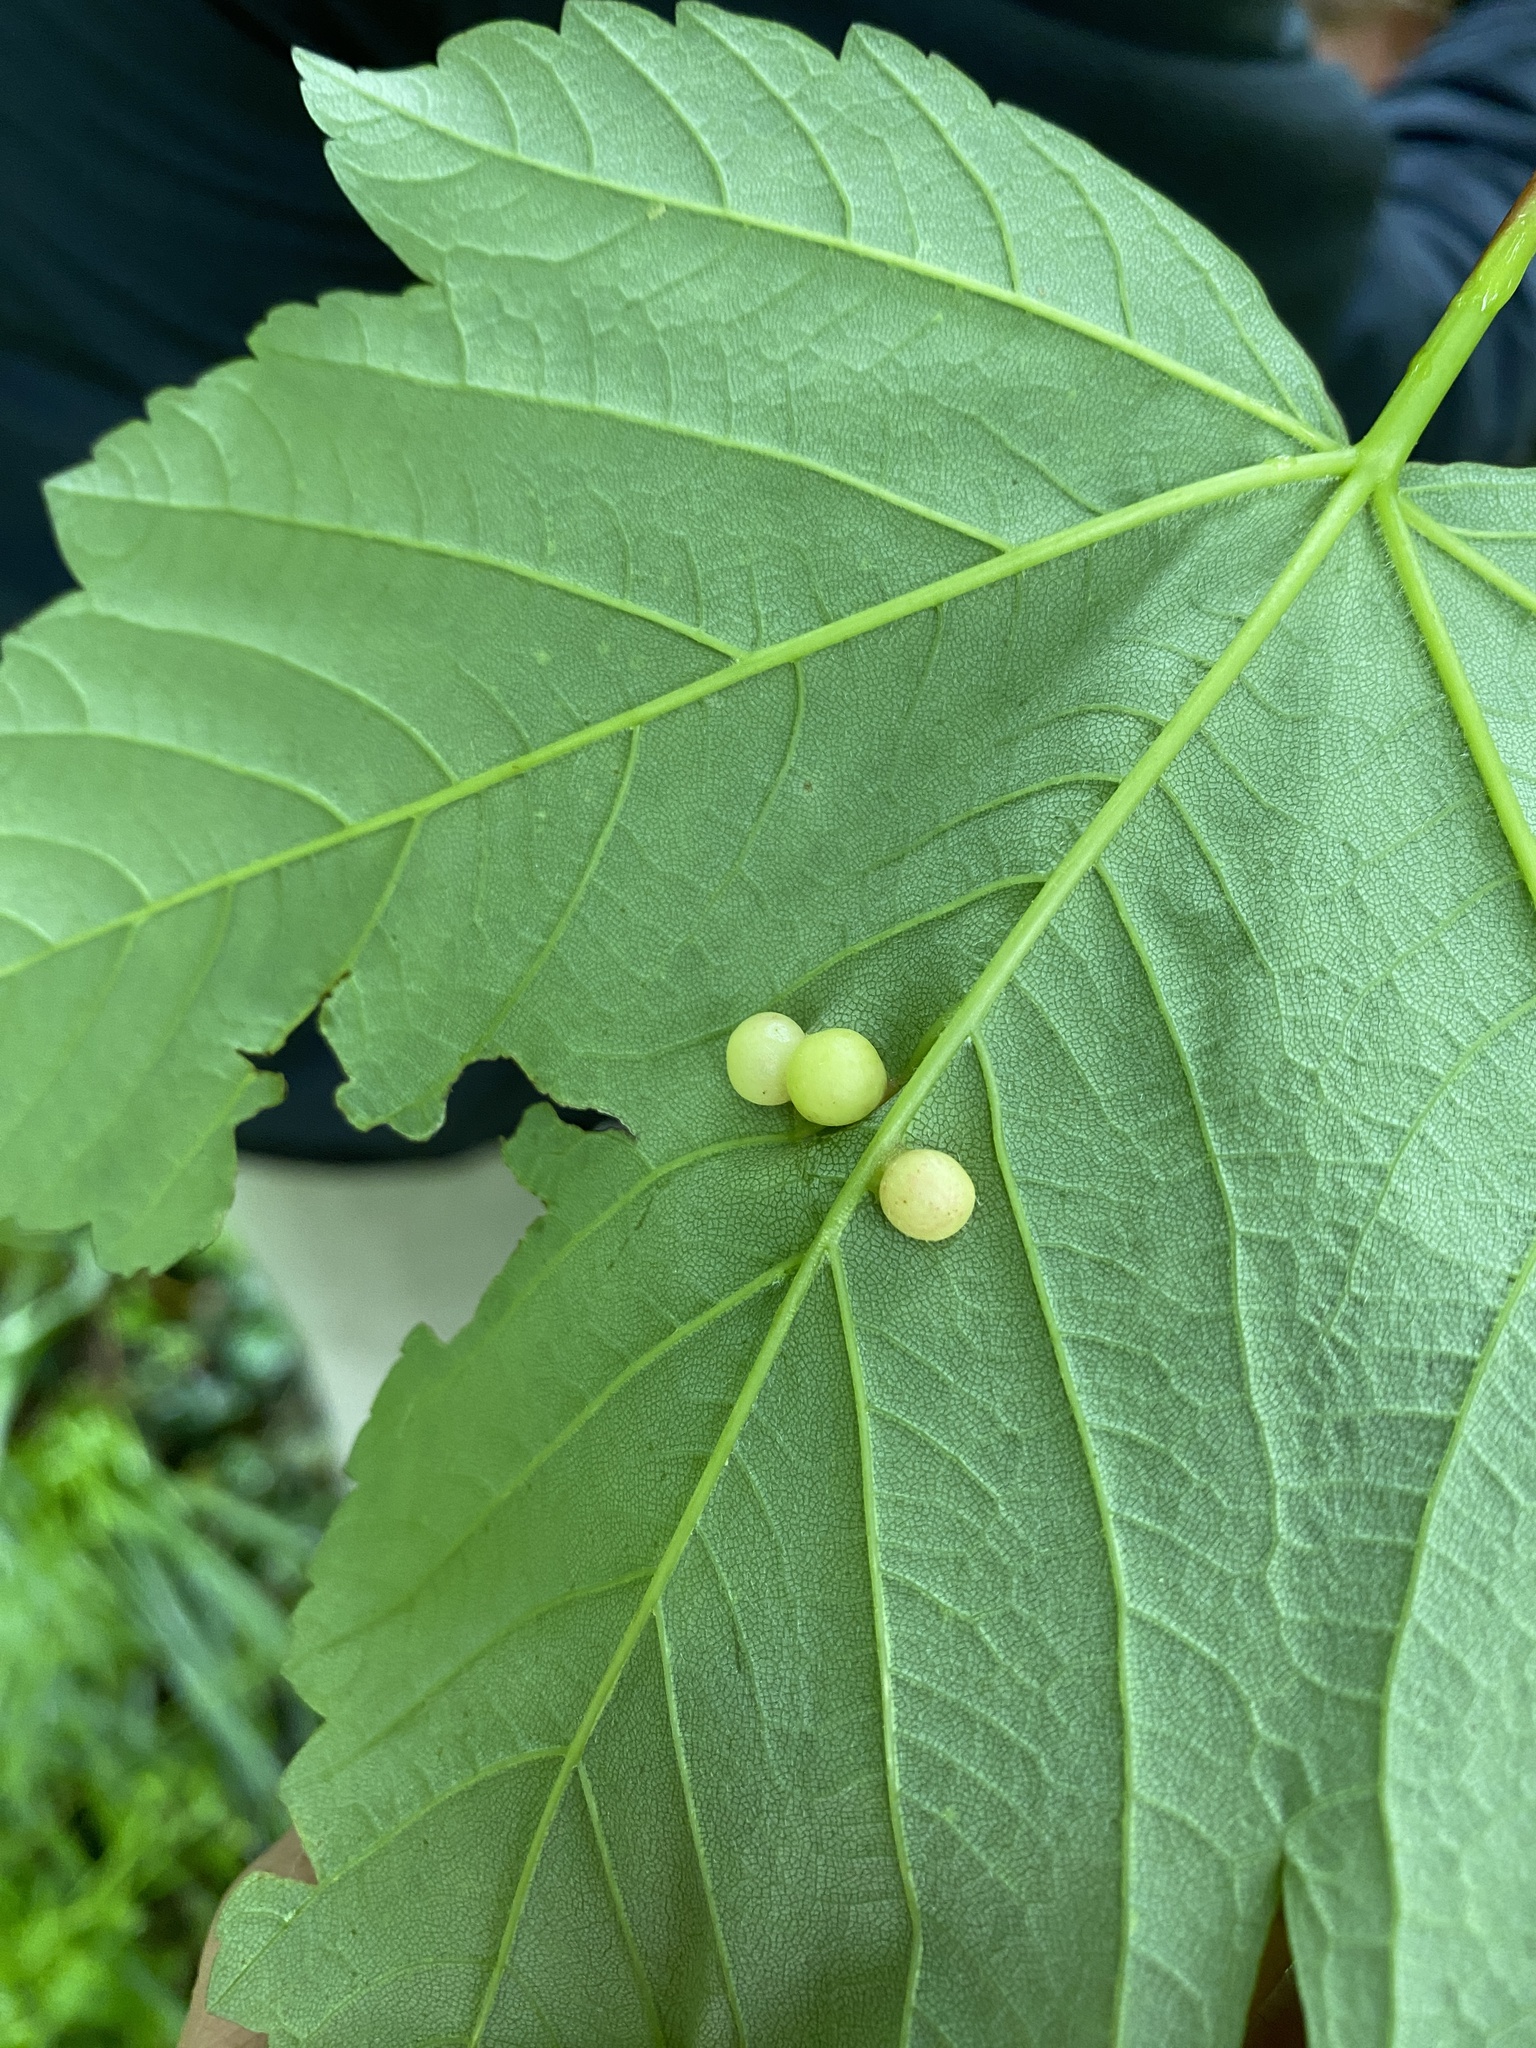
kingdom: Animalia
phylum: Arthropoda
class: Insecta
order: Hymenoptera
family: Cynipidae
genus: Pediaspis
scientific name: Pediaspis aceris
